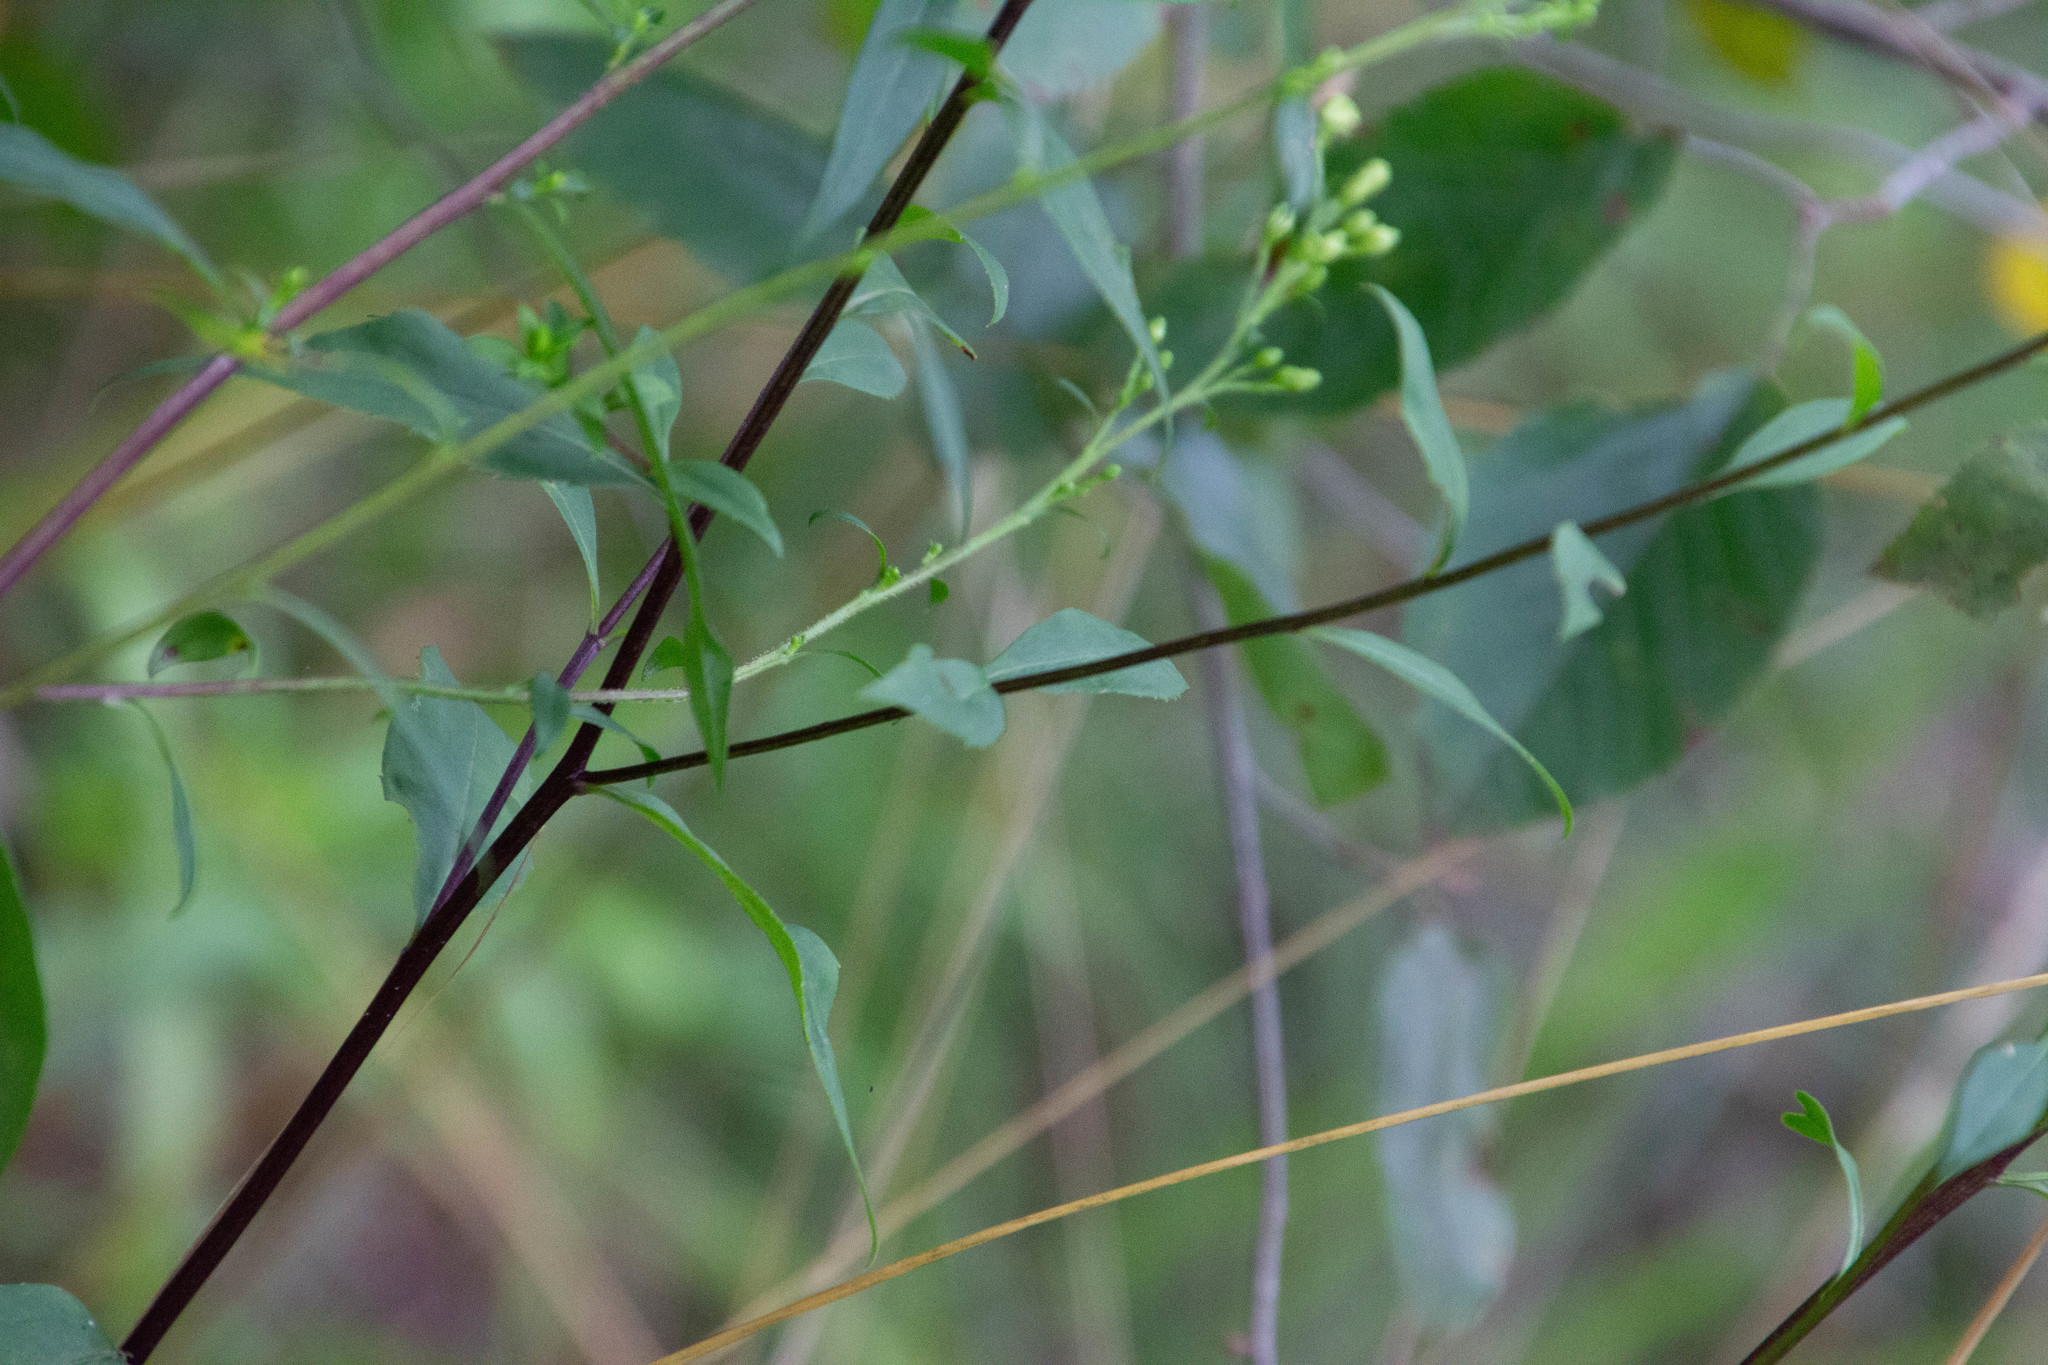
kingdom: Plantae
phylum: Tracheophyta
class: Magnoliopsida
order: Asterales
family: Asteraceae
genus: Solidago
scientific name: Solidago vaseyi
